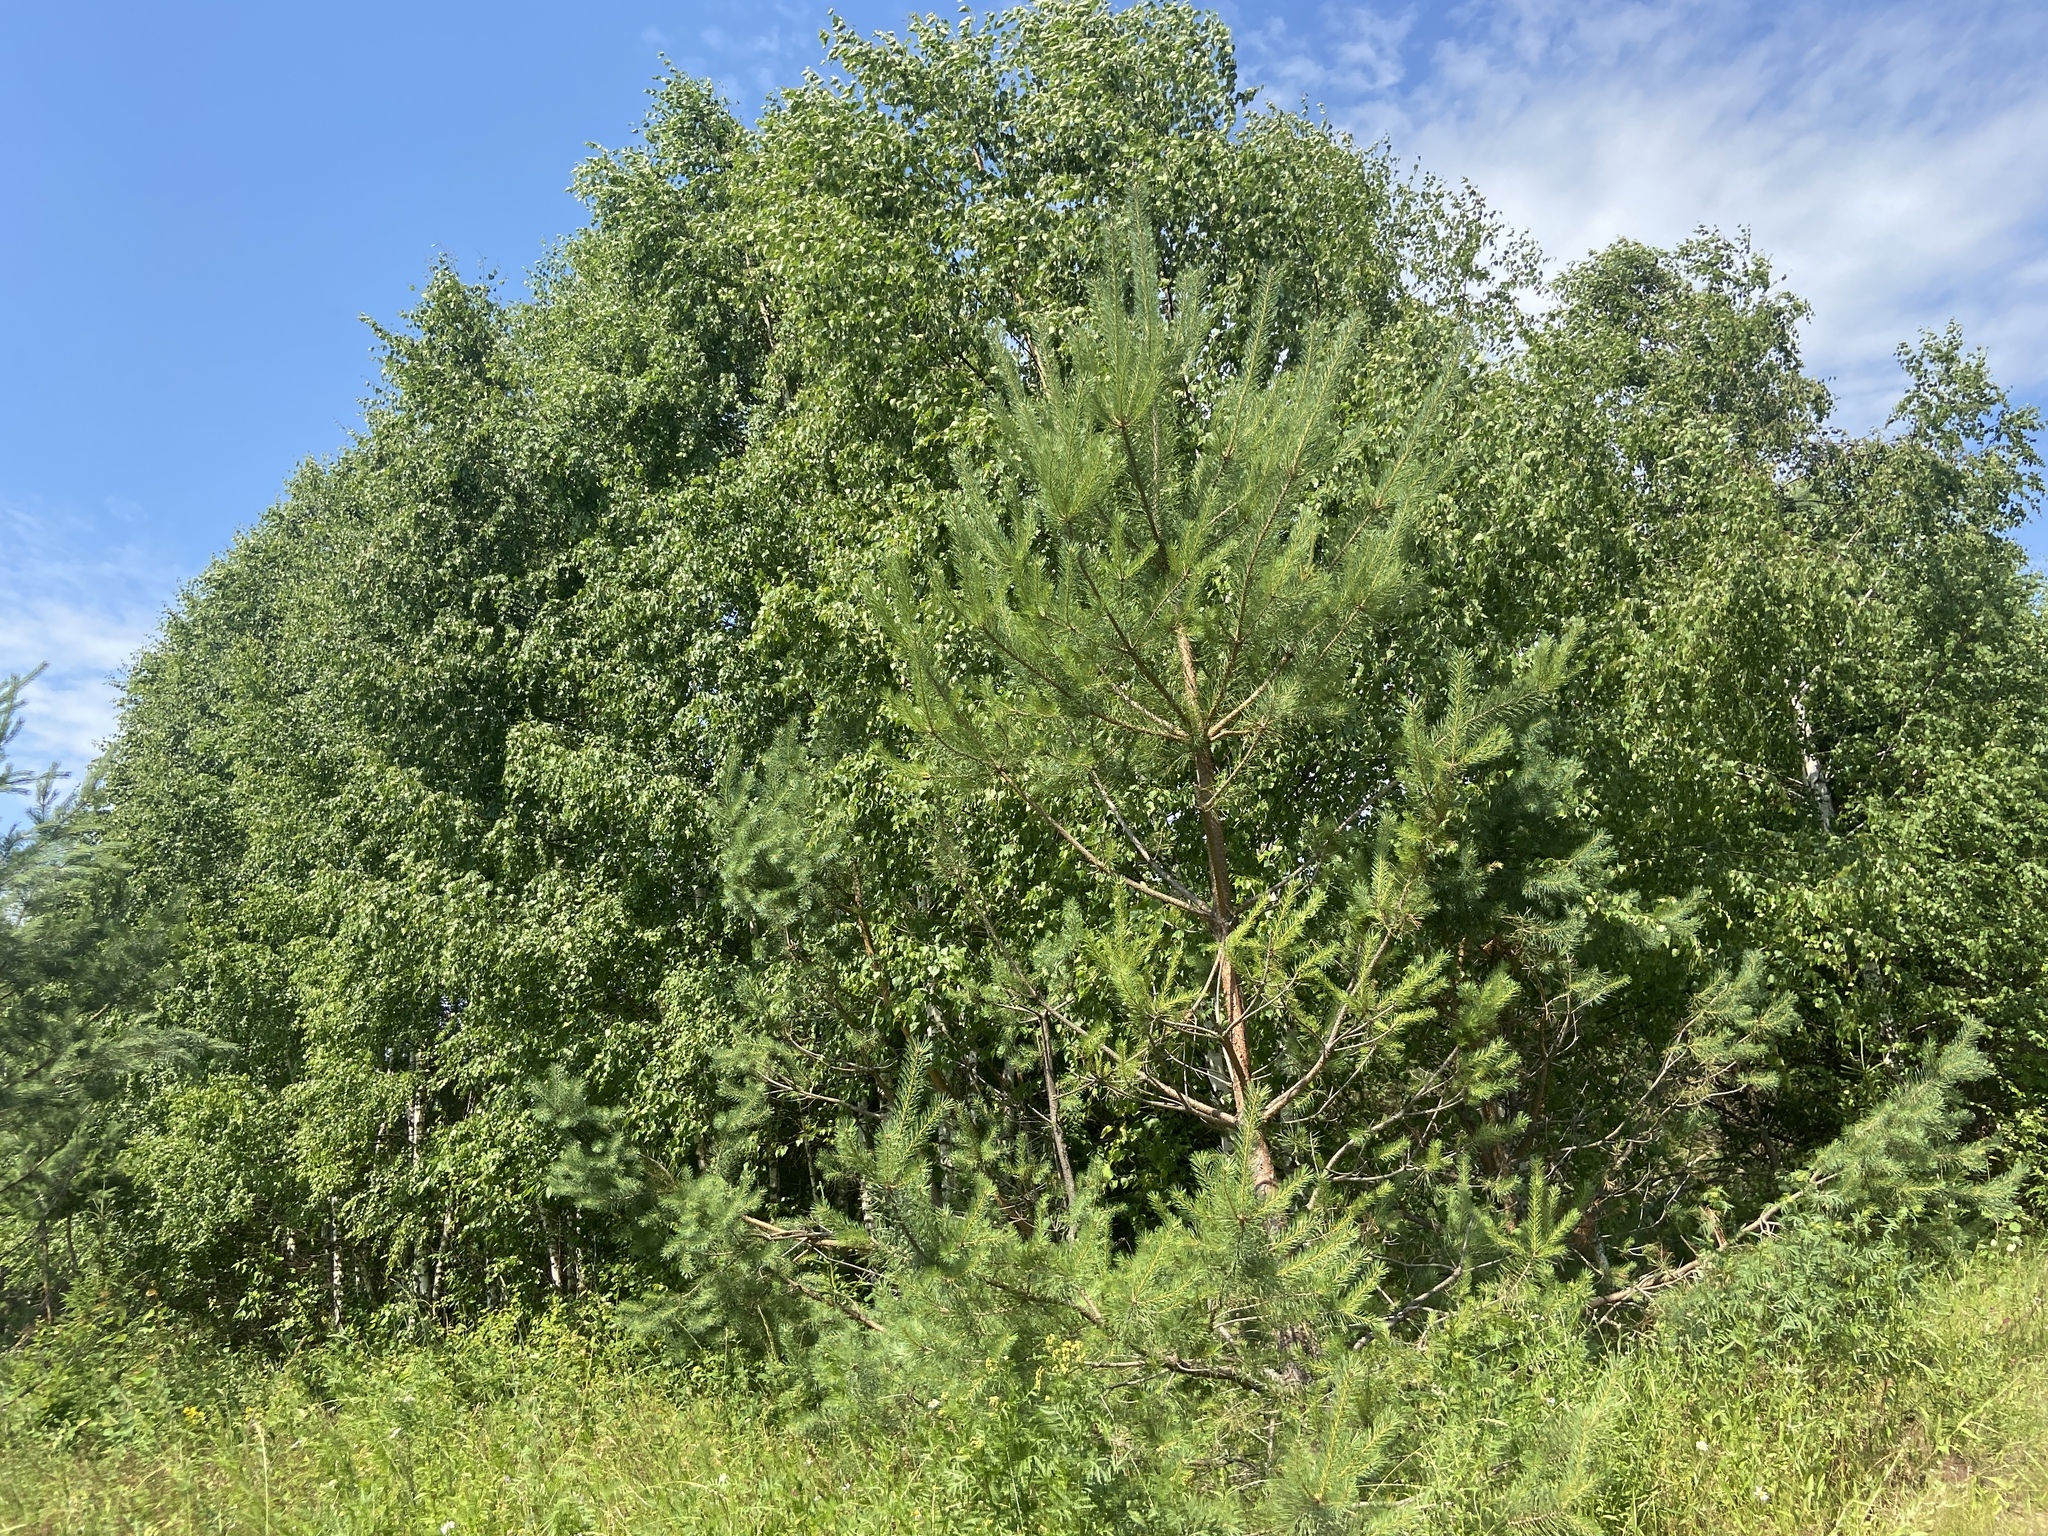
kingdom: Plantae
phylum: Tracheophyta
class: Pinopsida
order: Pinales
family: Pinaceae
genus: Pinus
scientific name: Pinus sylvestris
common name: Scots pine
